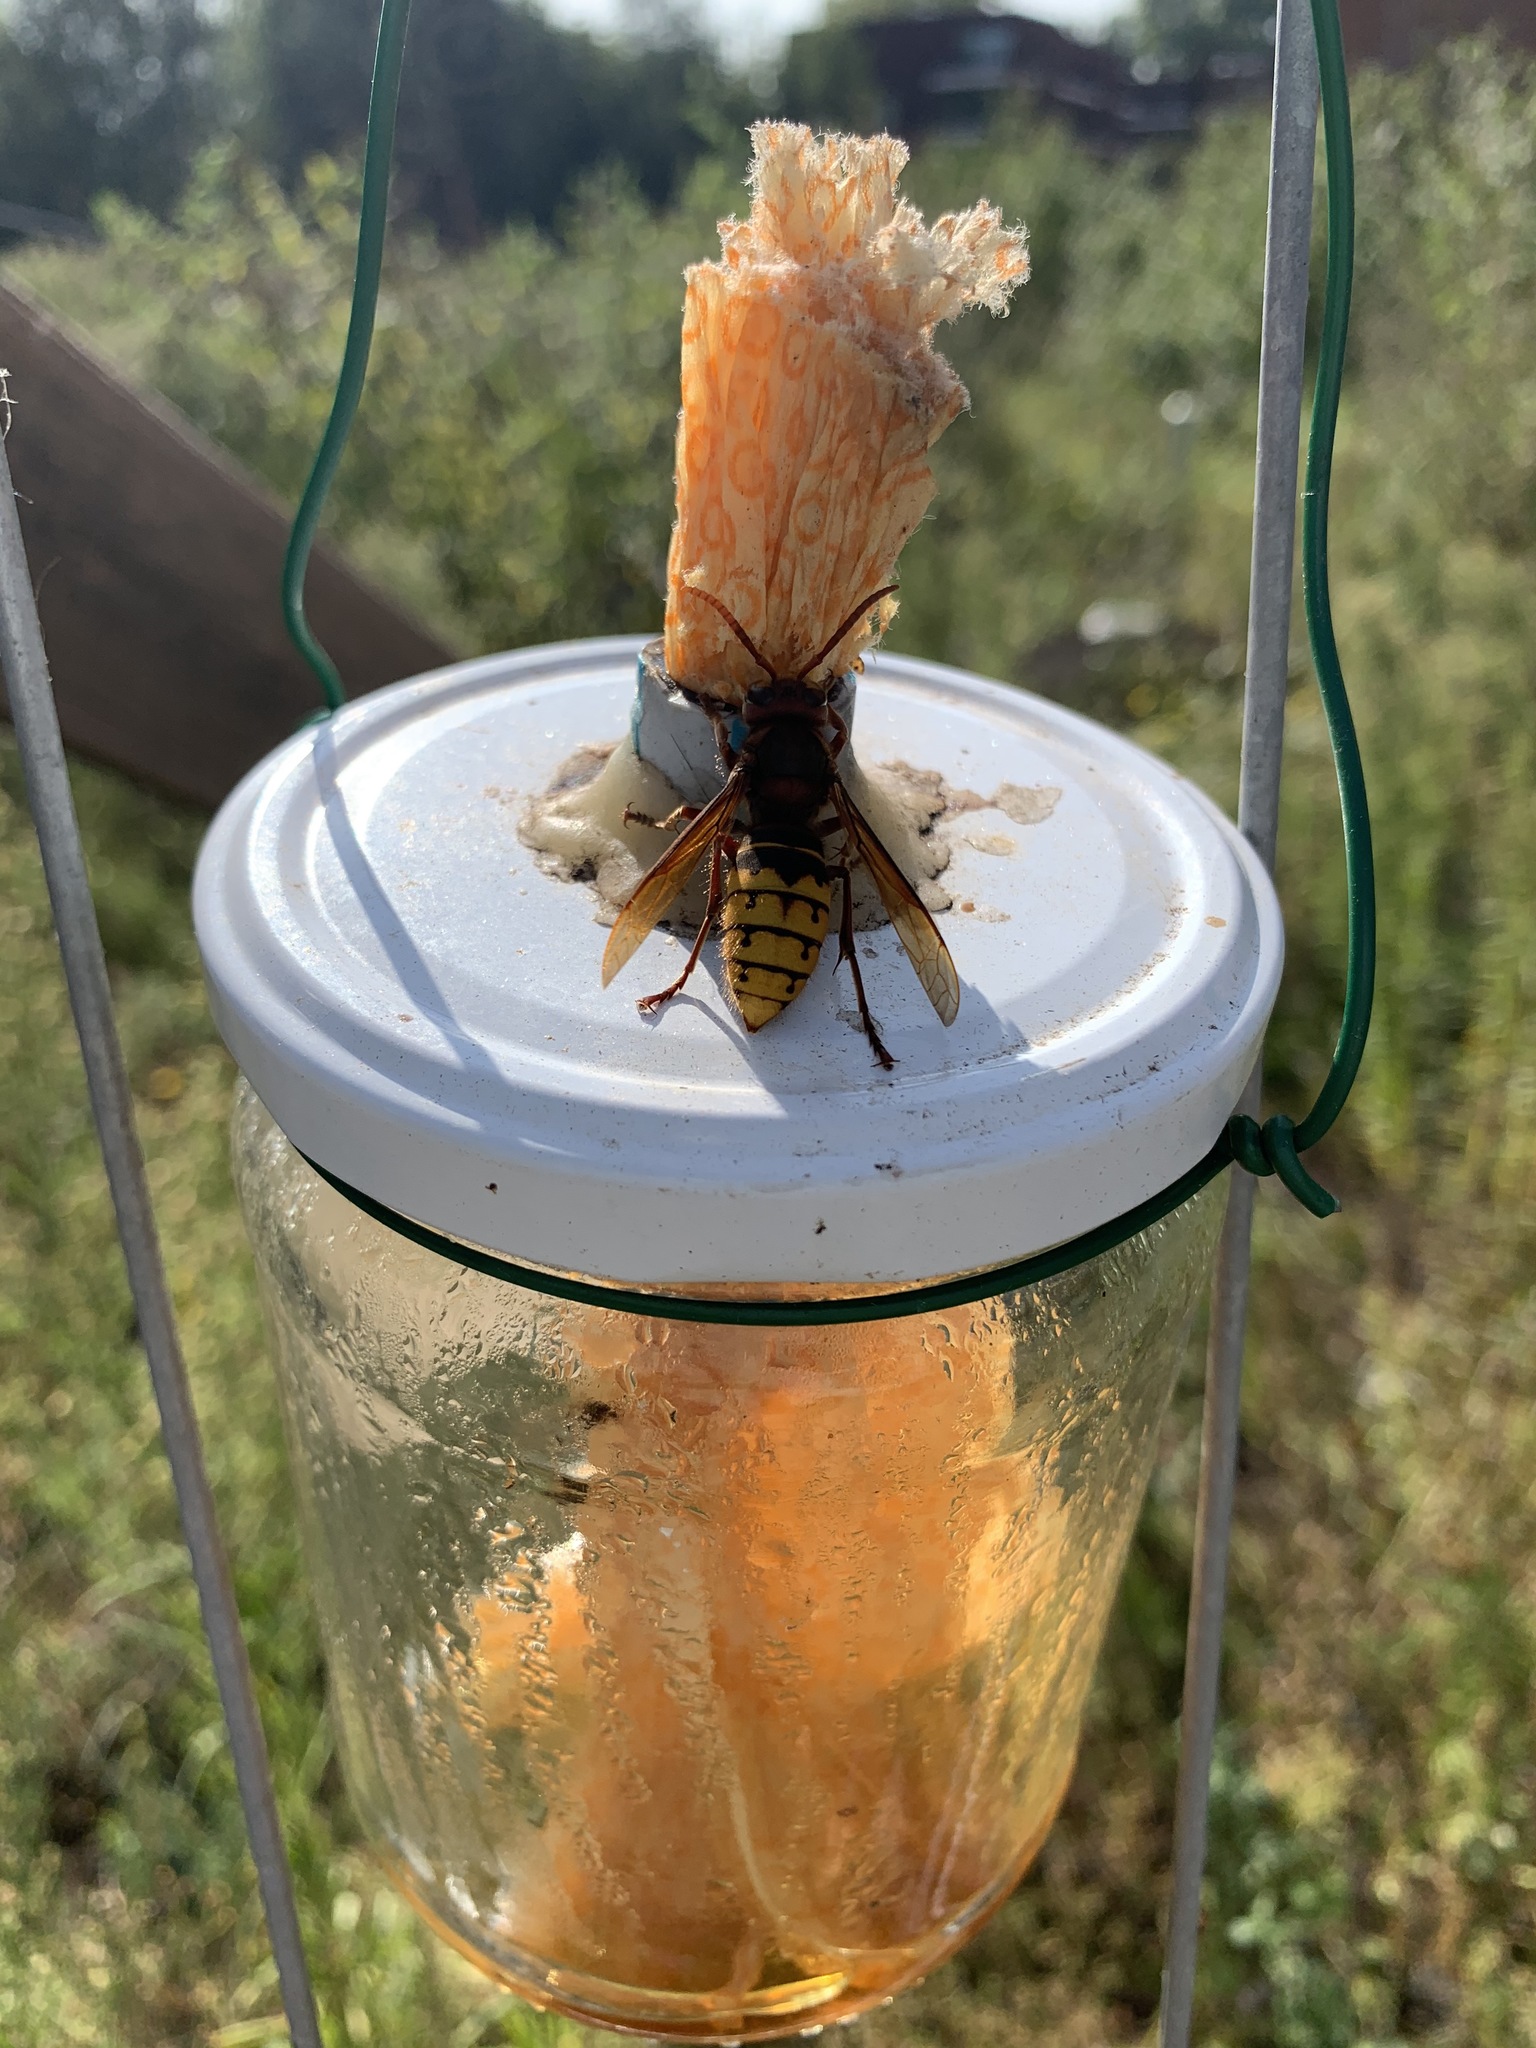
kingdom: Animalia
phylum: Arthropoda
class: Insecta
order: Hymenoptera
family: Vespidae
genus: Vespa
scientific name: Vespa crabro
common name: Hornet
